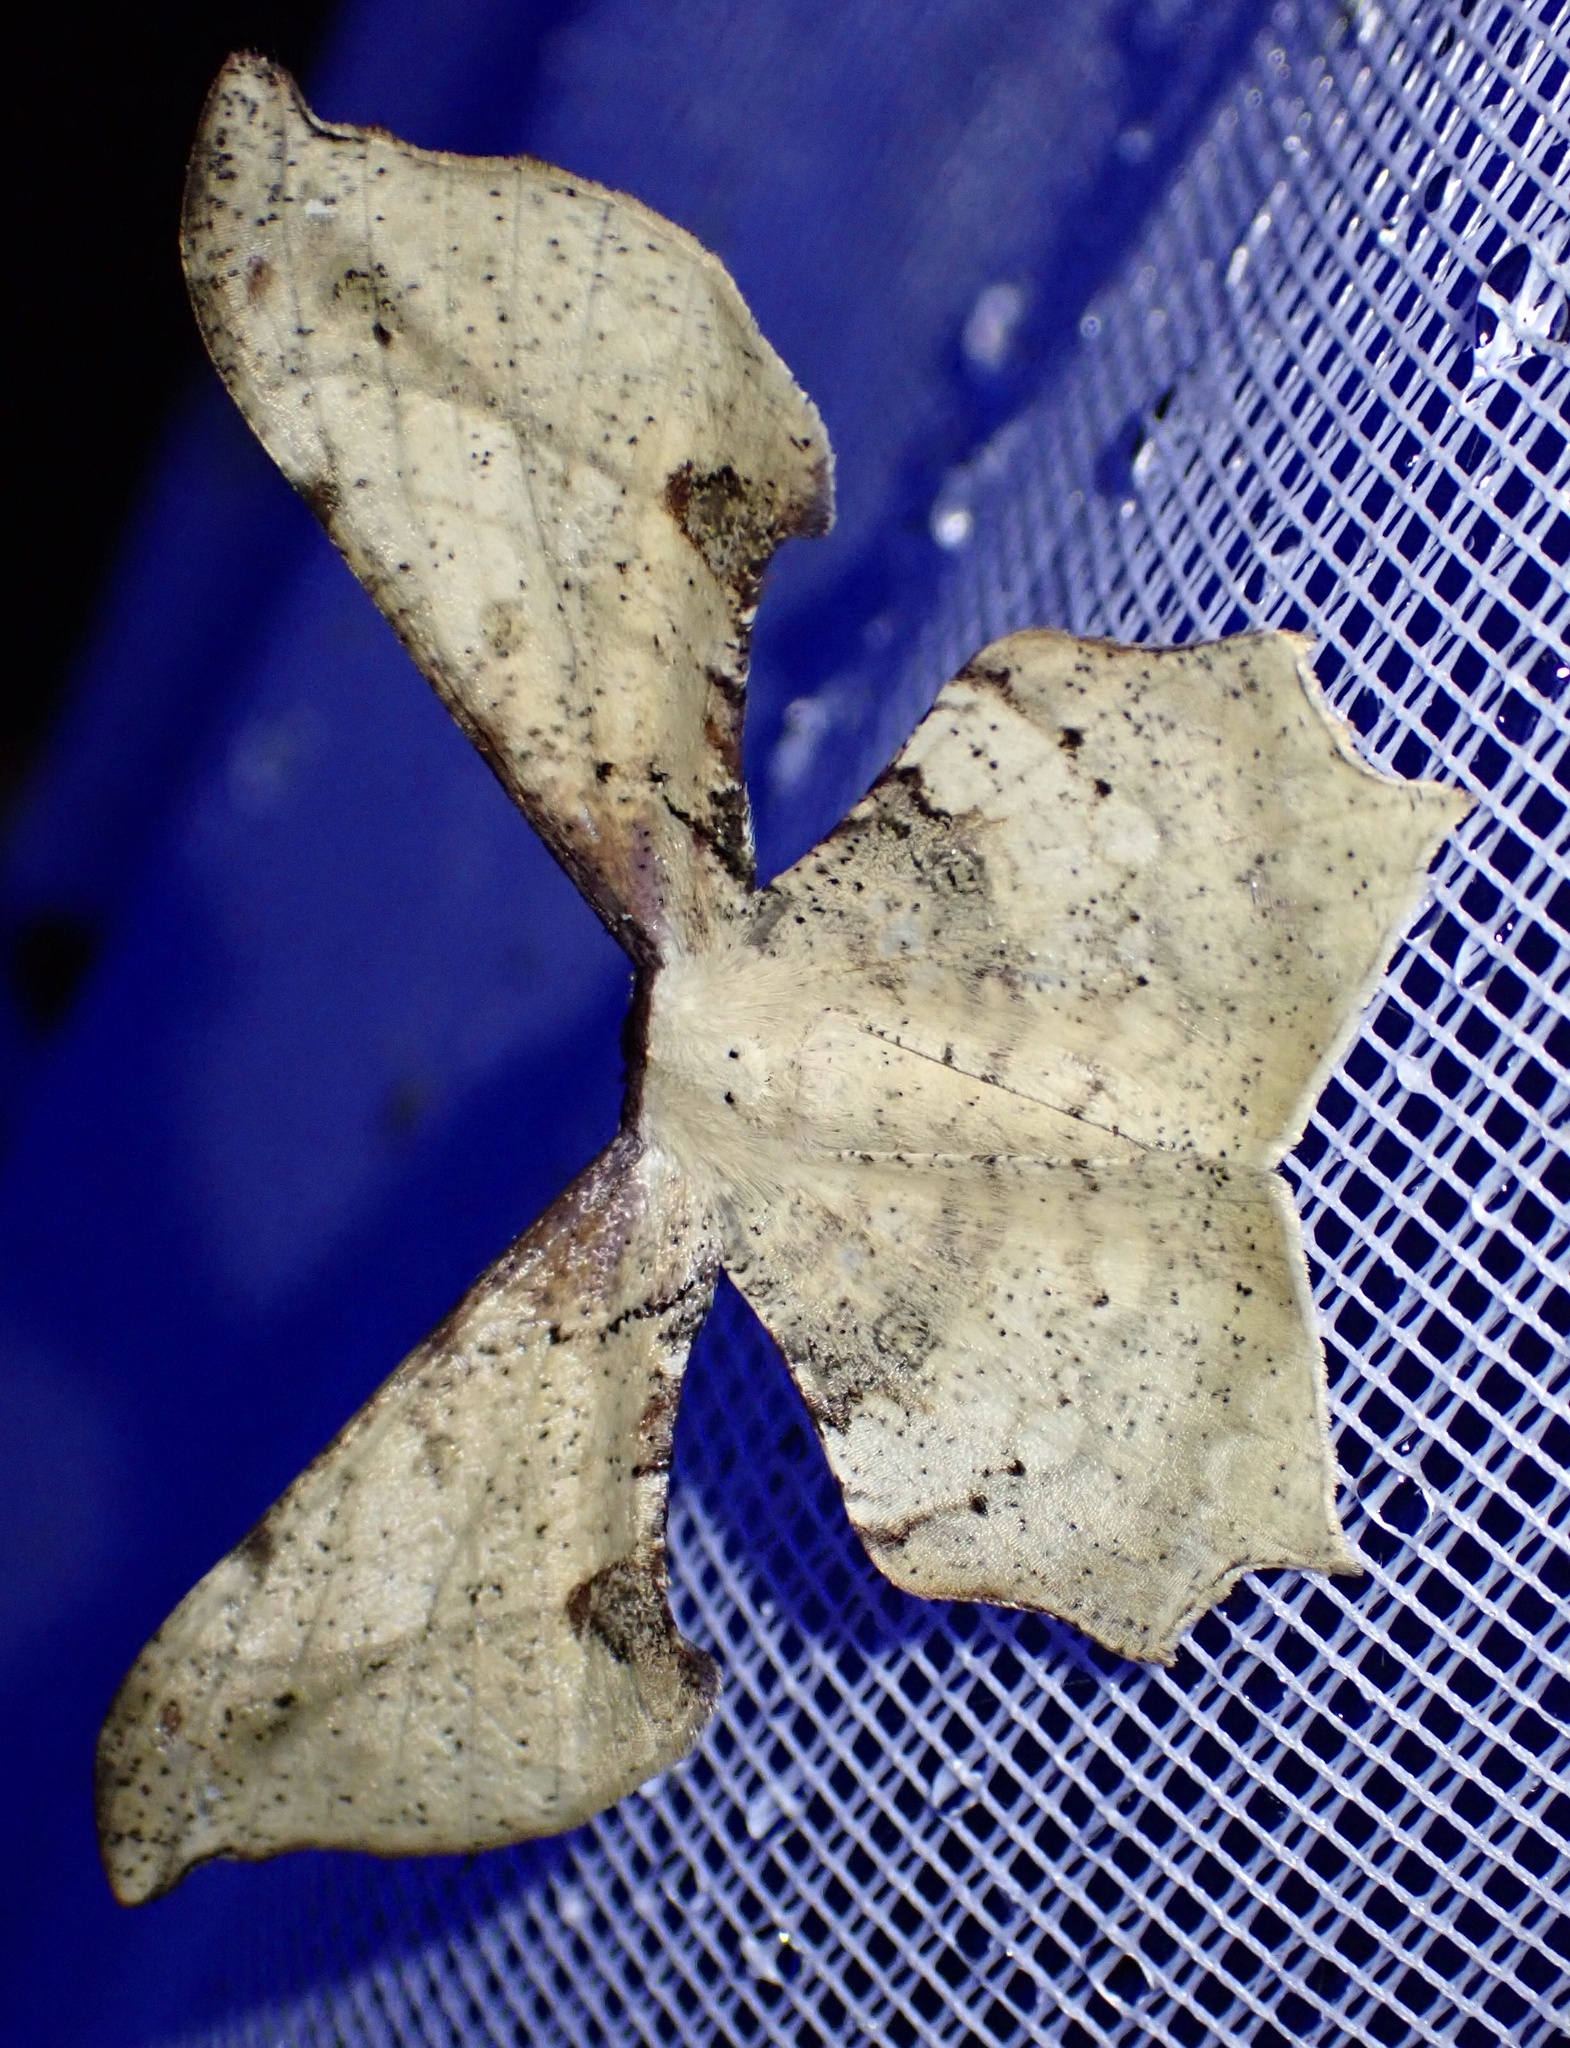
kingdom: Animalia
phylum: Arthropoda
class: Insecta
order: Lepidoptera
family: Geometridae
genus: Xylinophylla
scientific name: Xylinophylla maculata
